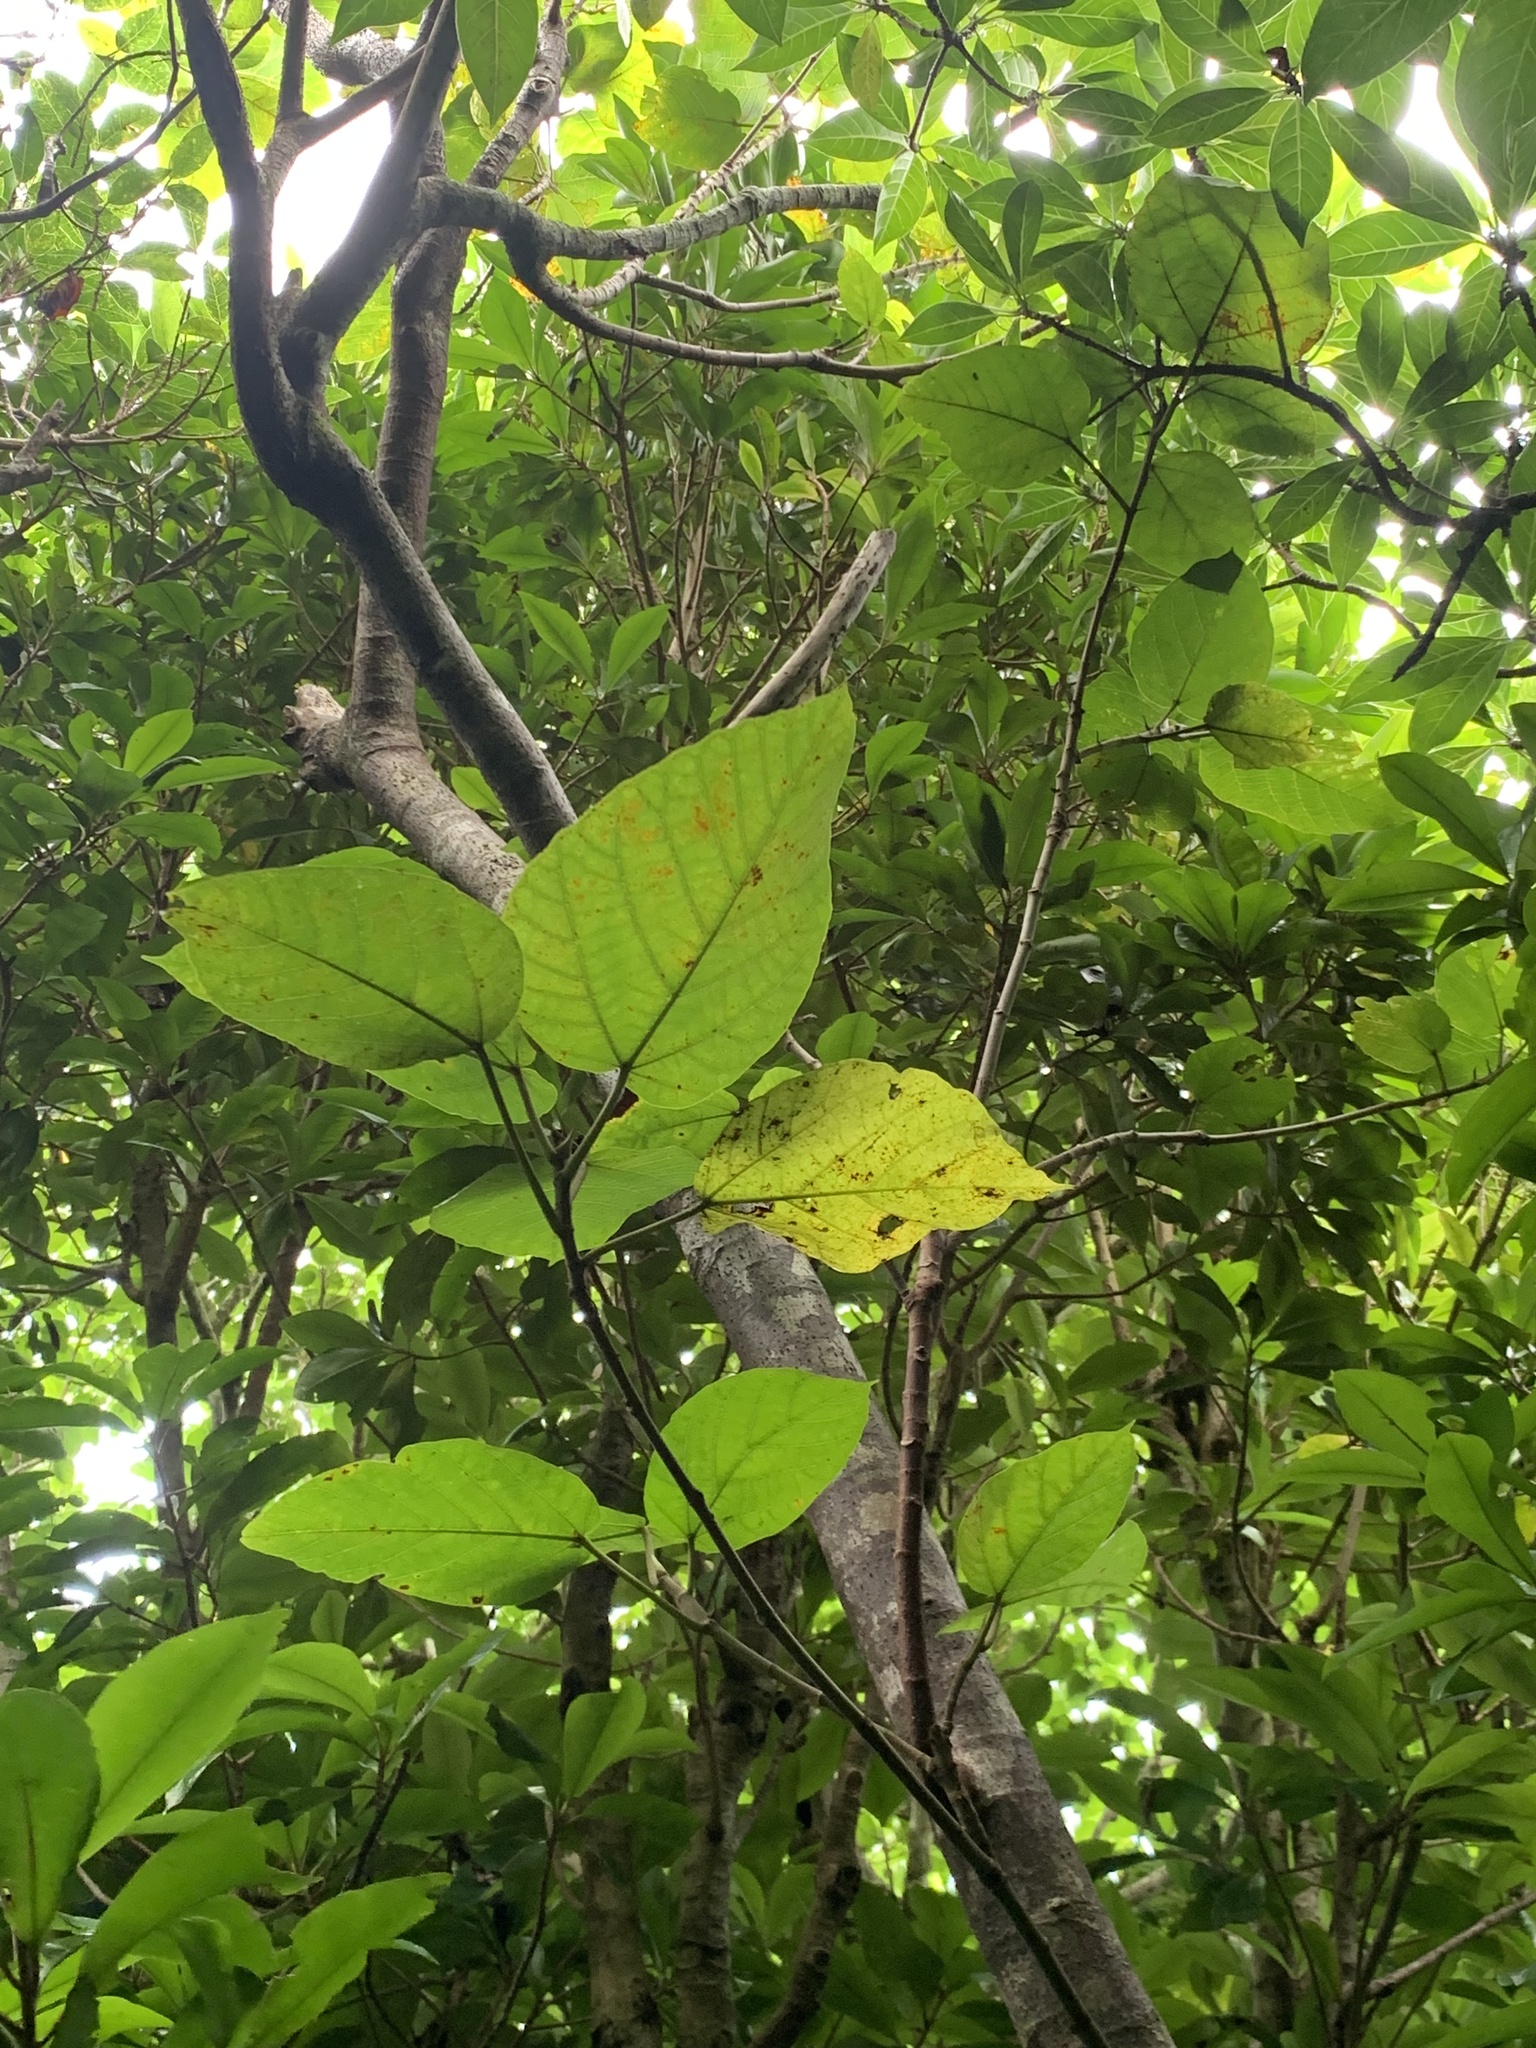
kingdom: Plantae
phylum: Tracheophyta
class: Magnoliopsida
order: Rosales
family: Moraceae
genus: Ficus
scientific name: Ficus iidana
